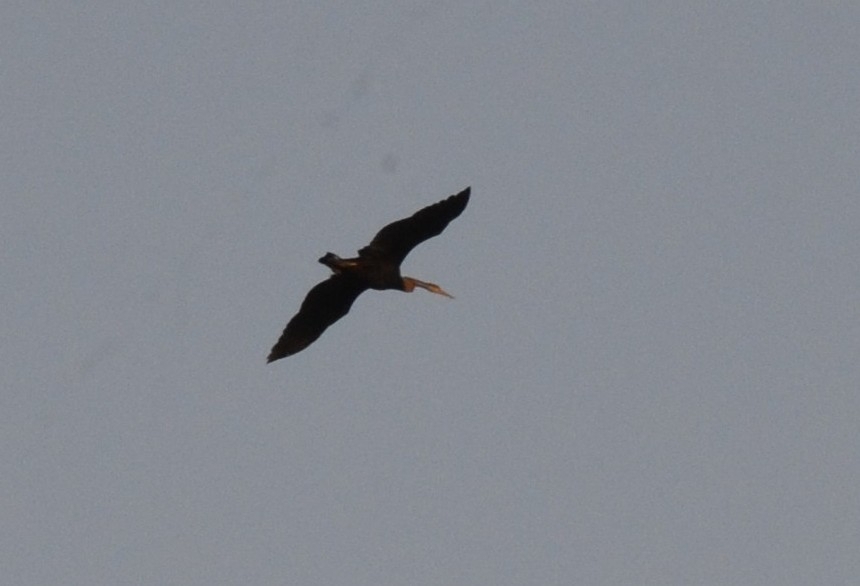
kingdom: Animalia
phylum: Chordata
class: Aves
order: Suliformes
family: Anhingidae
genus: Anhinga
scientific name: Anhinga melanogaster
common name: Oriental darter
